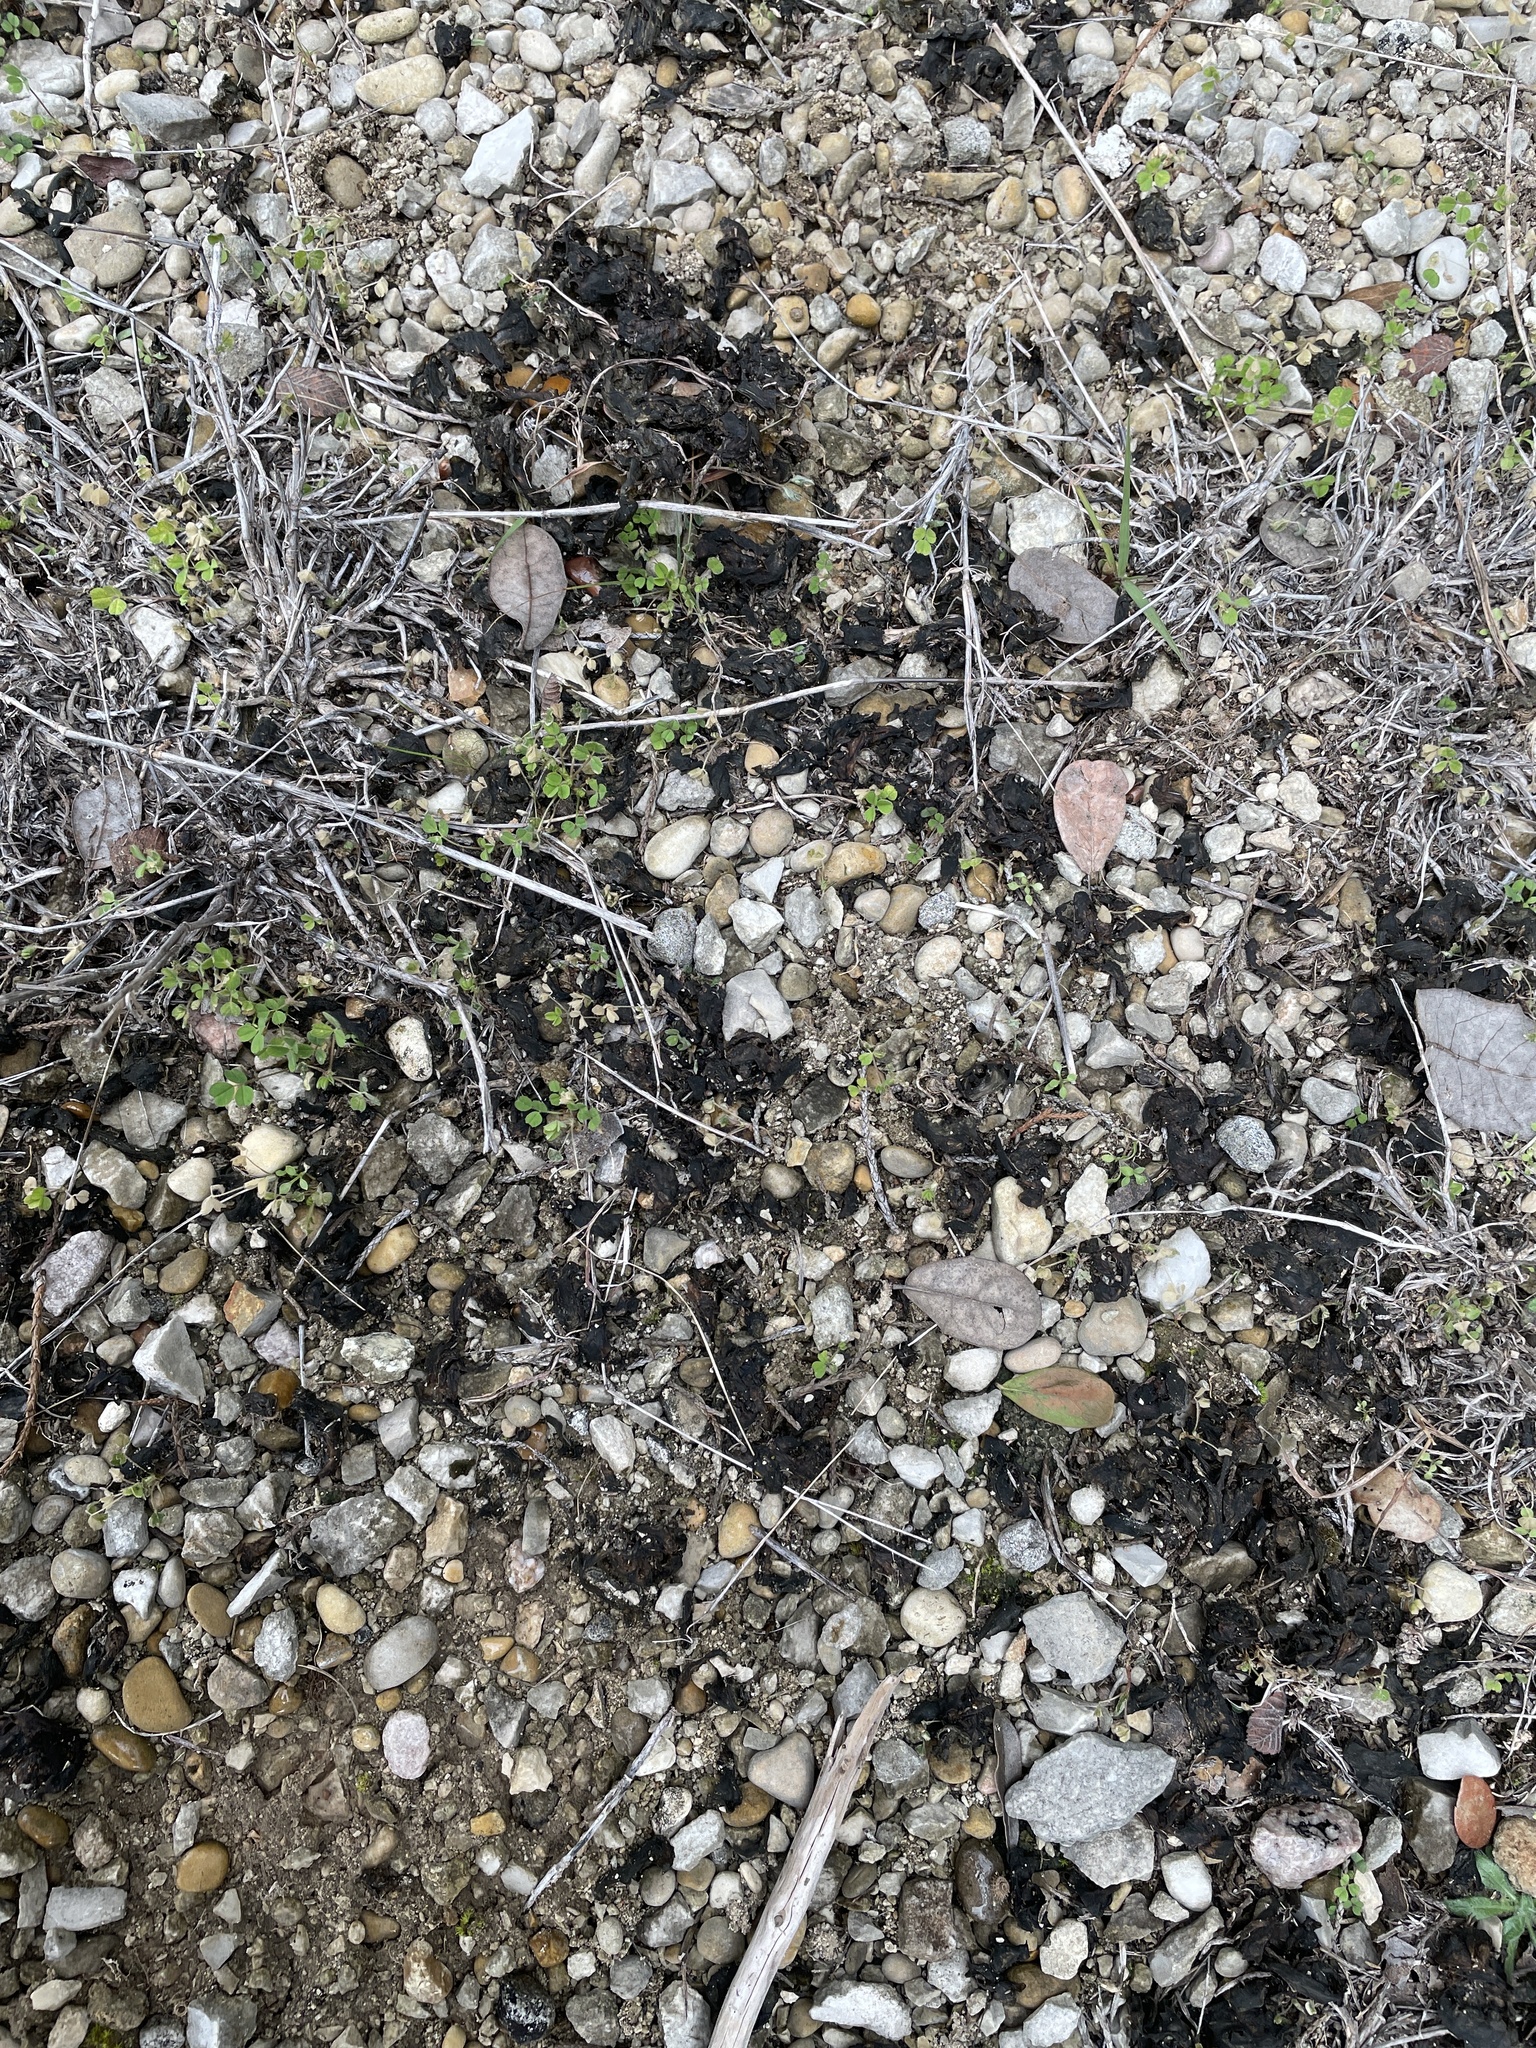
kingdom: Bacteria
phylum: Cyanobacteria
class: Cyanobacteriia
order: Cyanobacteriales
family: Nostocaceae
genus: Nostoc
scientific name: Nostoc commune
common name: Star jelly
